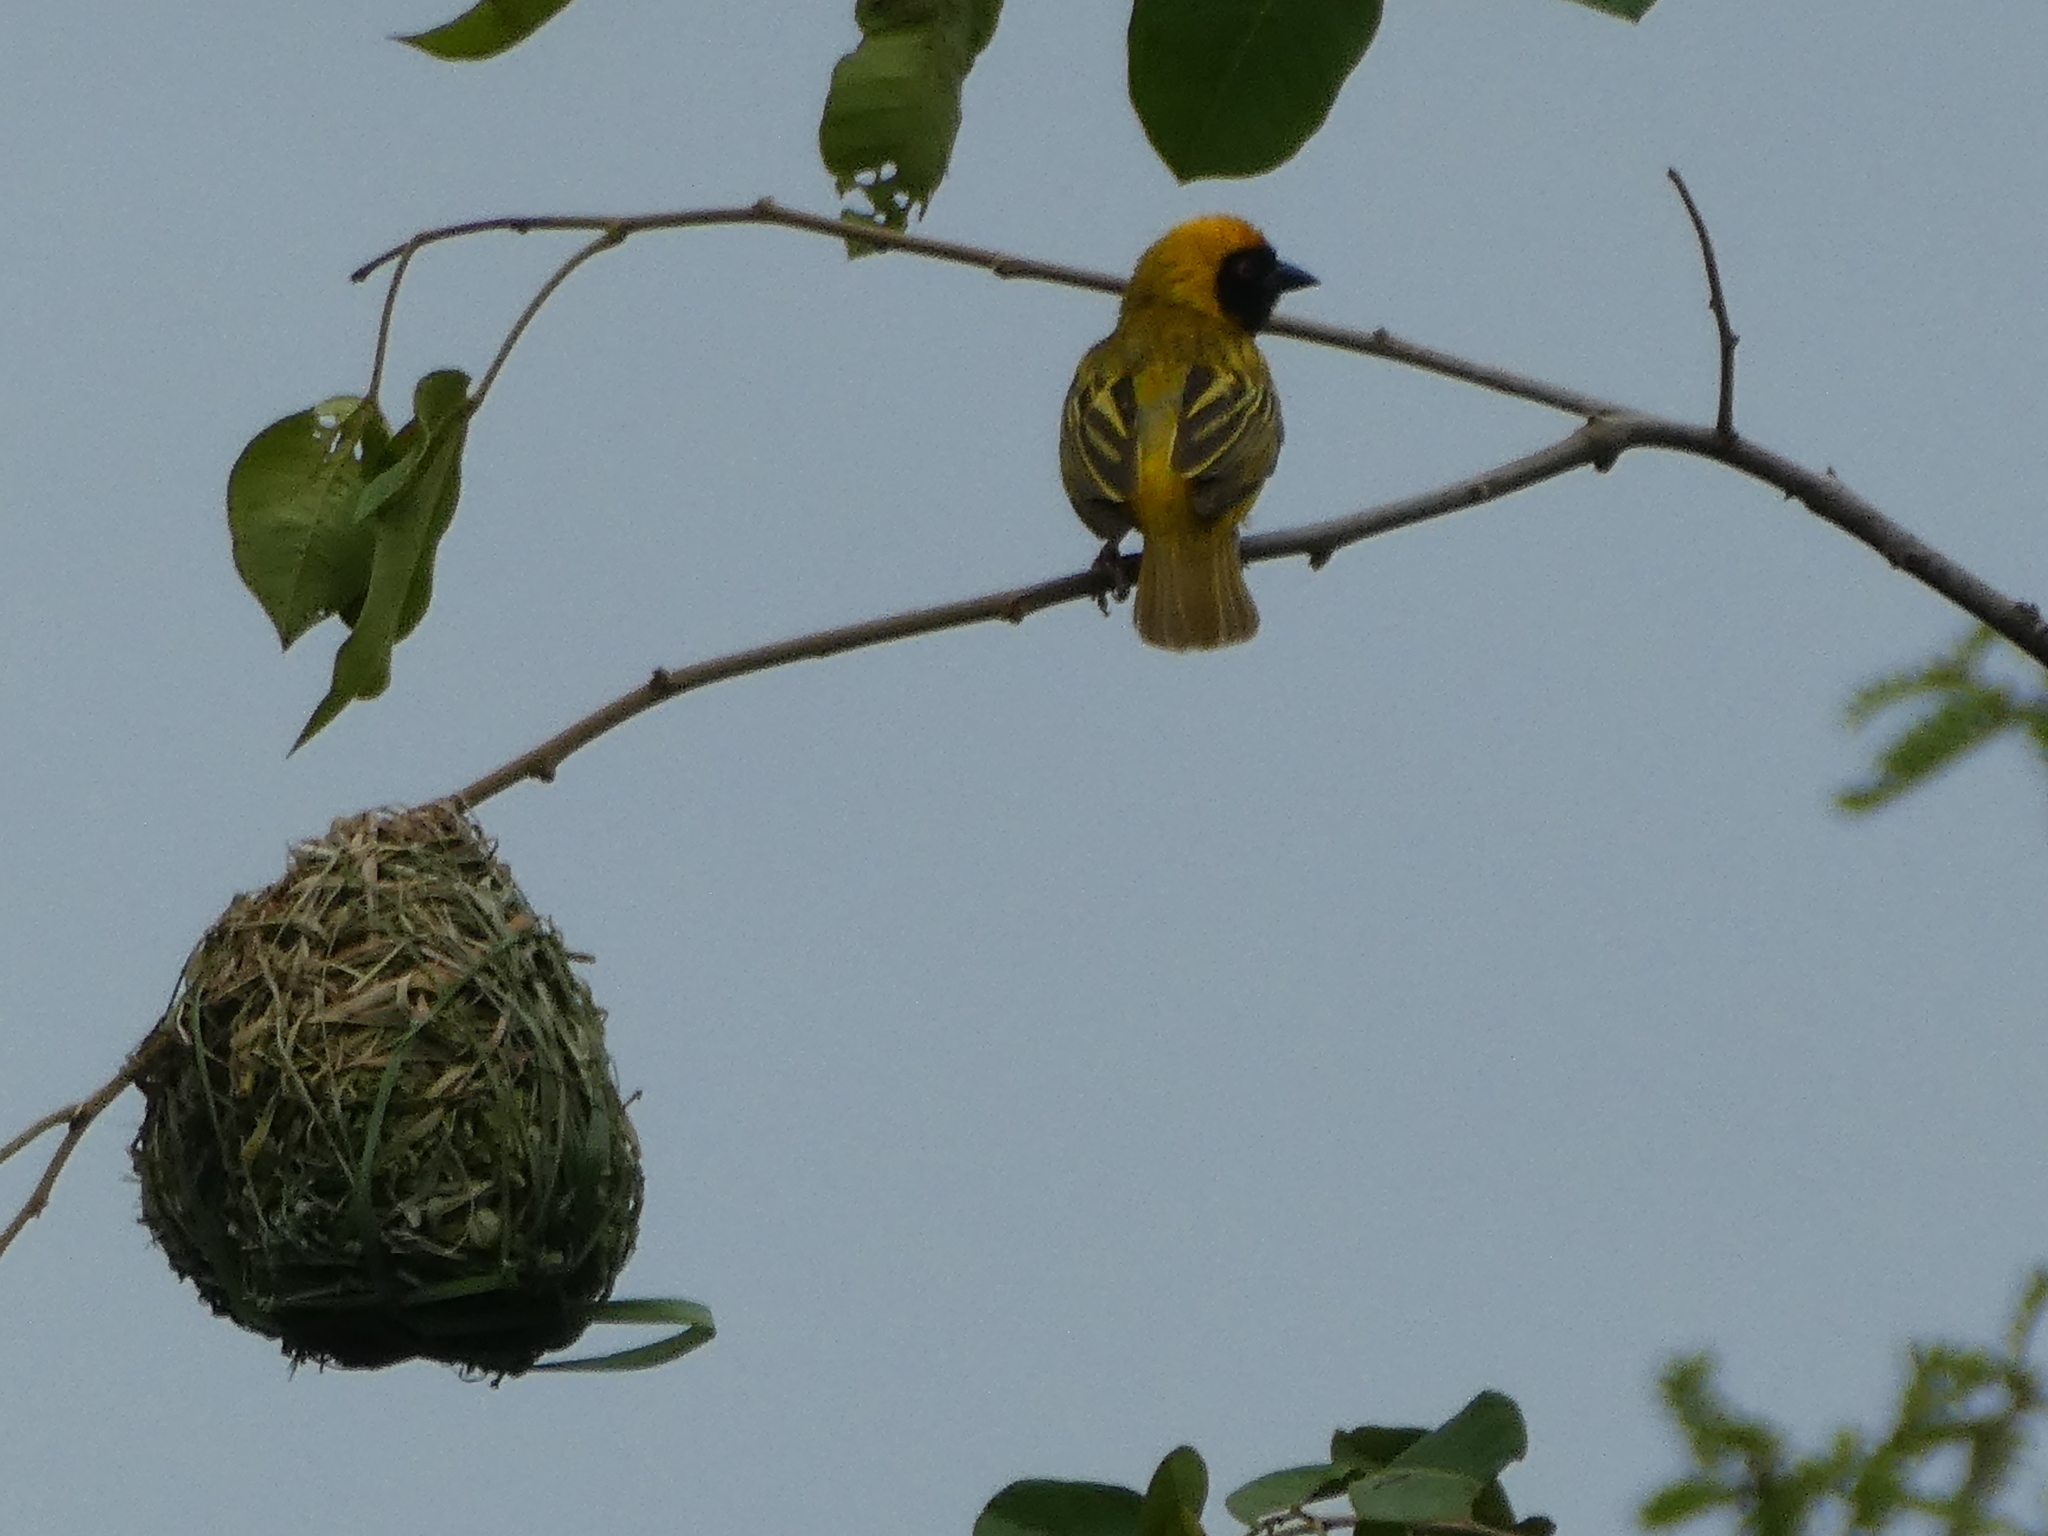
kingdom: Animalia
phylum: Chordata
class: Aves
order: Passeriformes
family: Ploceidae
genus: Ploceus
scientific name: Ploceus velatus
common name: Southern masked weaver
